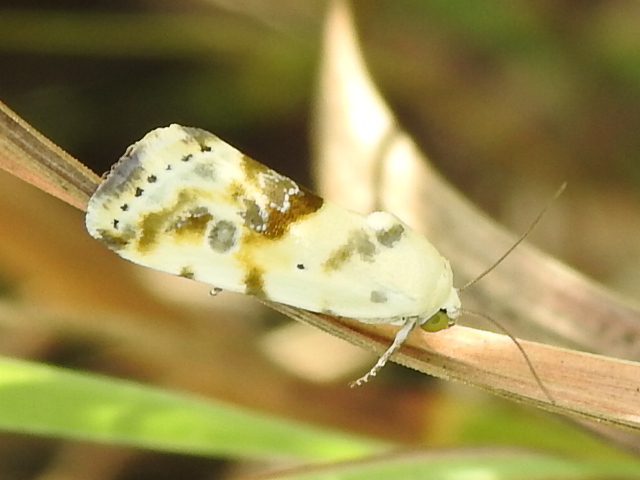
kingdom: Animalia
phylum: Arthropoda
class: Insecta
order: Lepidoptera
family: Noctuidae
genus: Acontia
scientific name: Acontia candefacta
